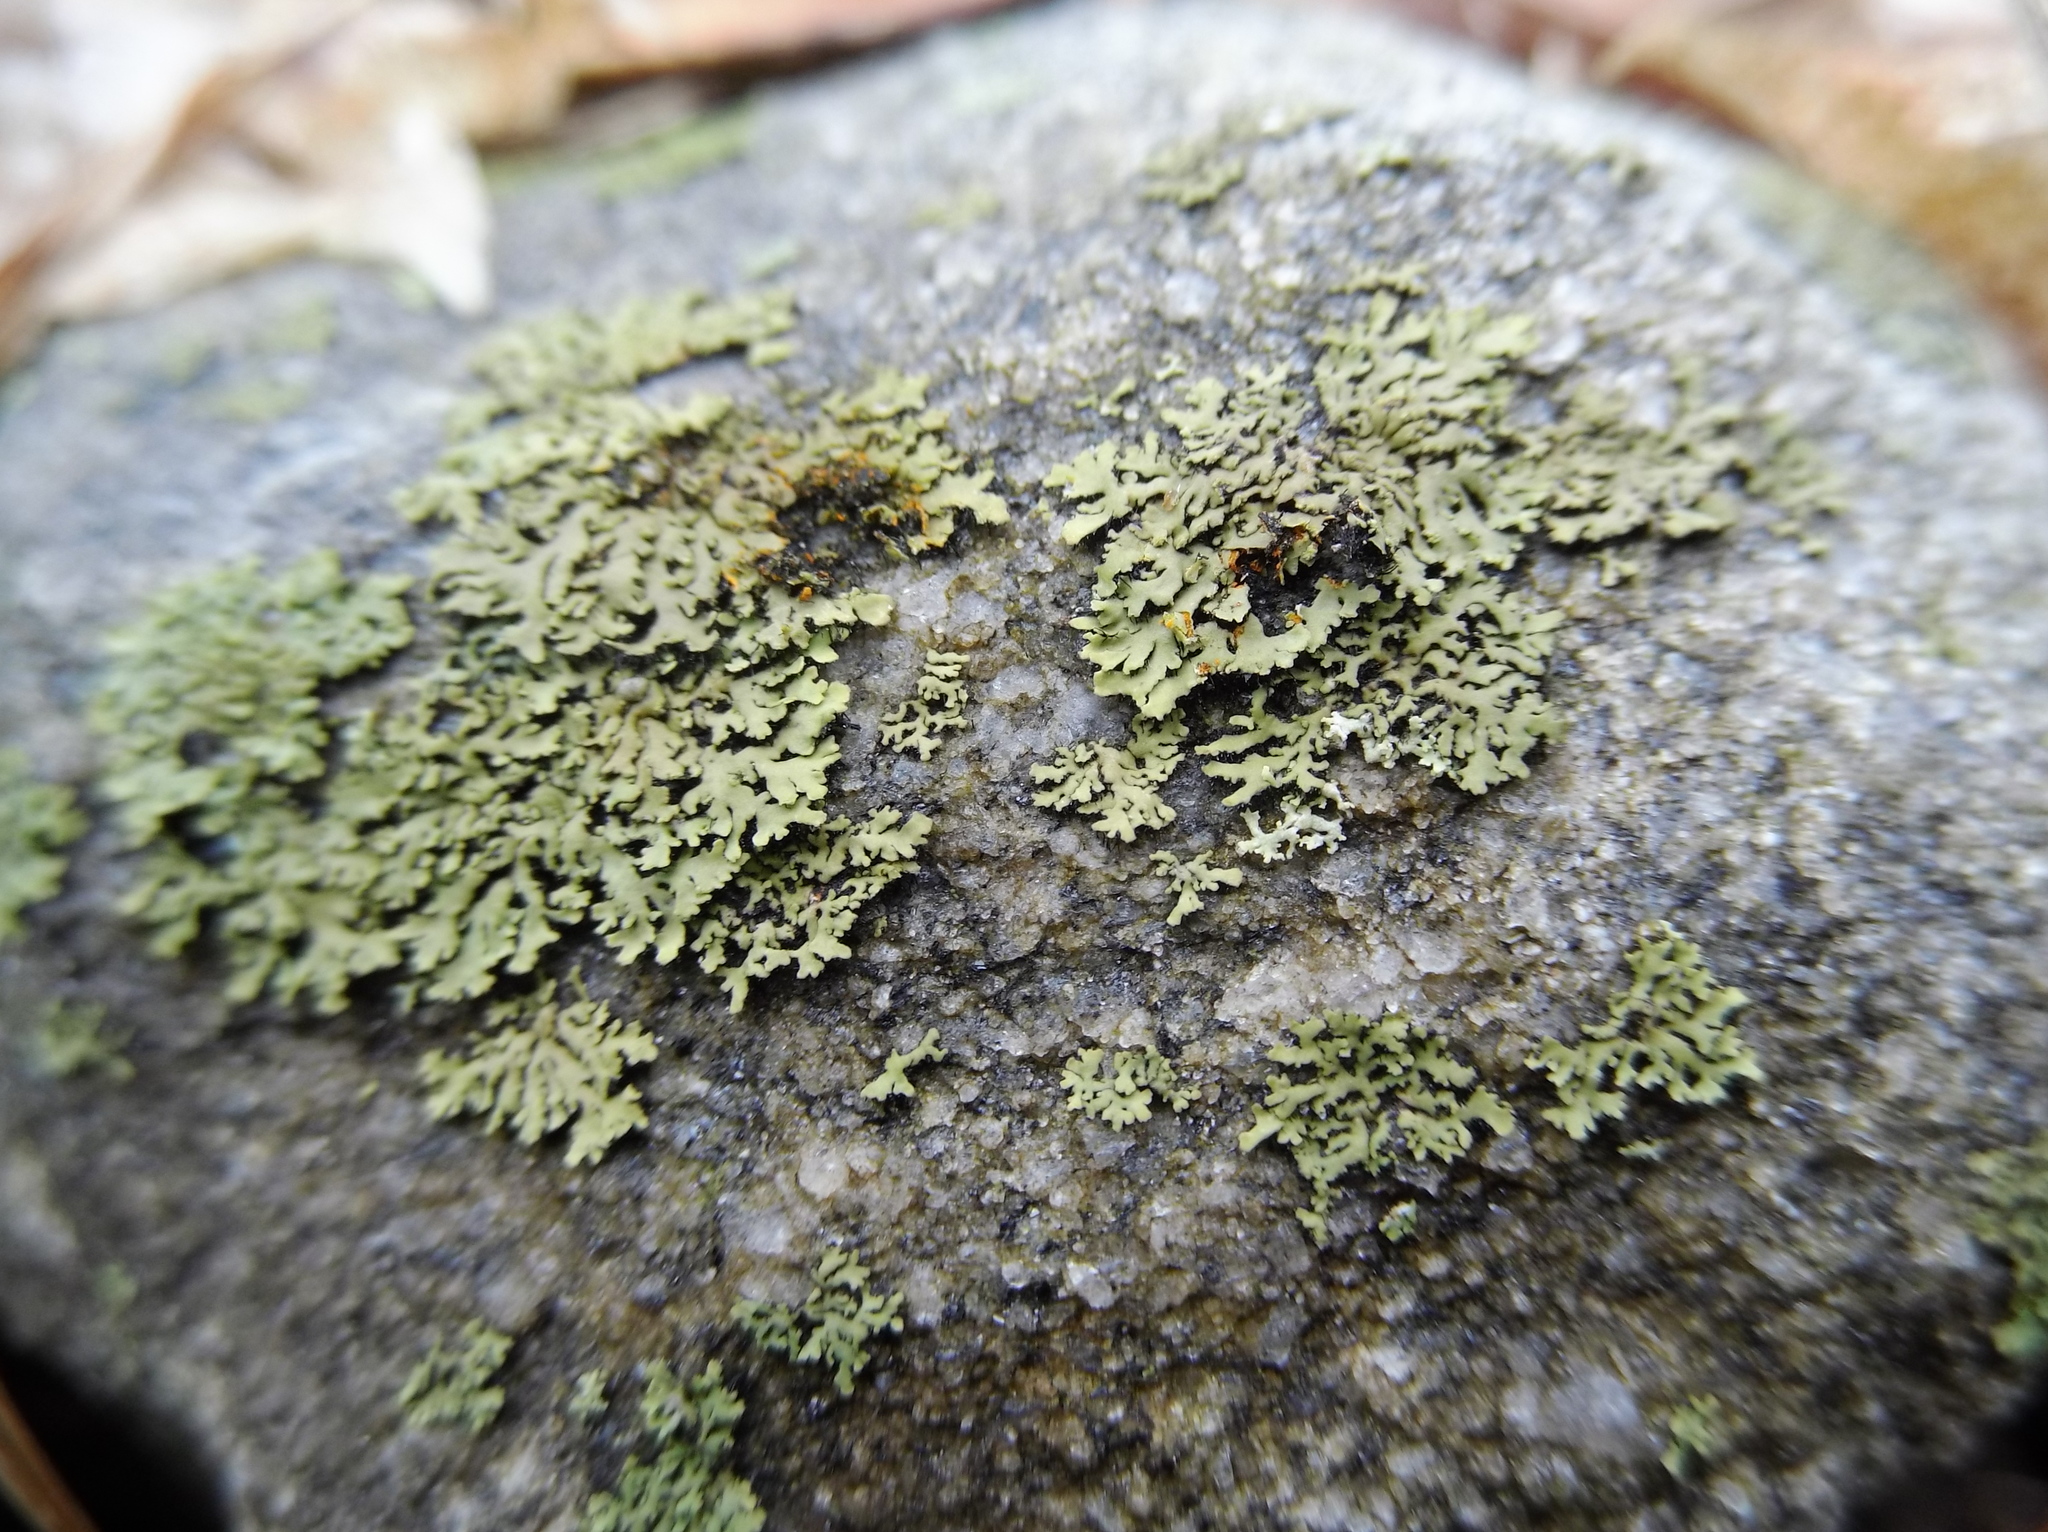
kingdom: Fungi
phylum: Ascomycota
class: Lecanoromycetes
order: Caliciales
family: Physciaceae
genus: Phaeophyscia
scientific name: Phaeophyscia rubropulchra
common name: Orange-cored shadow lichen
